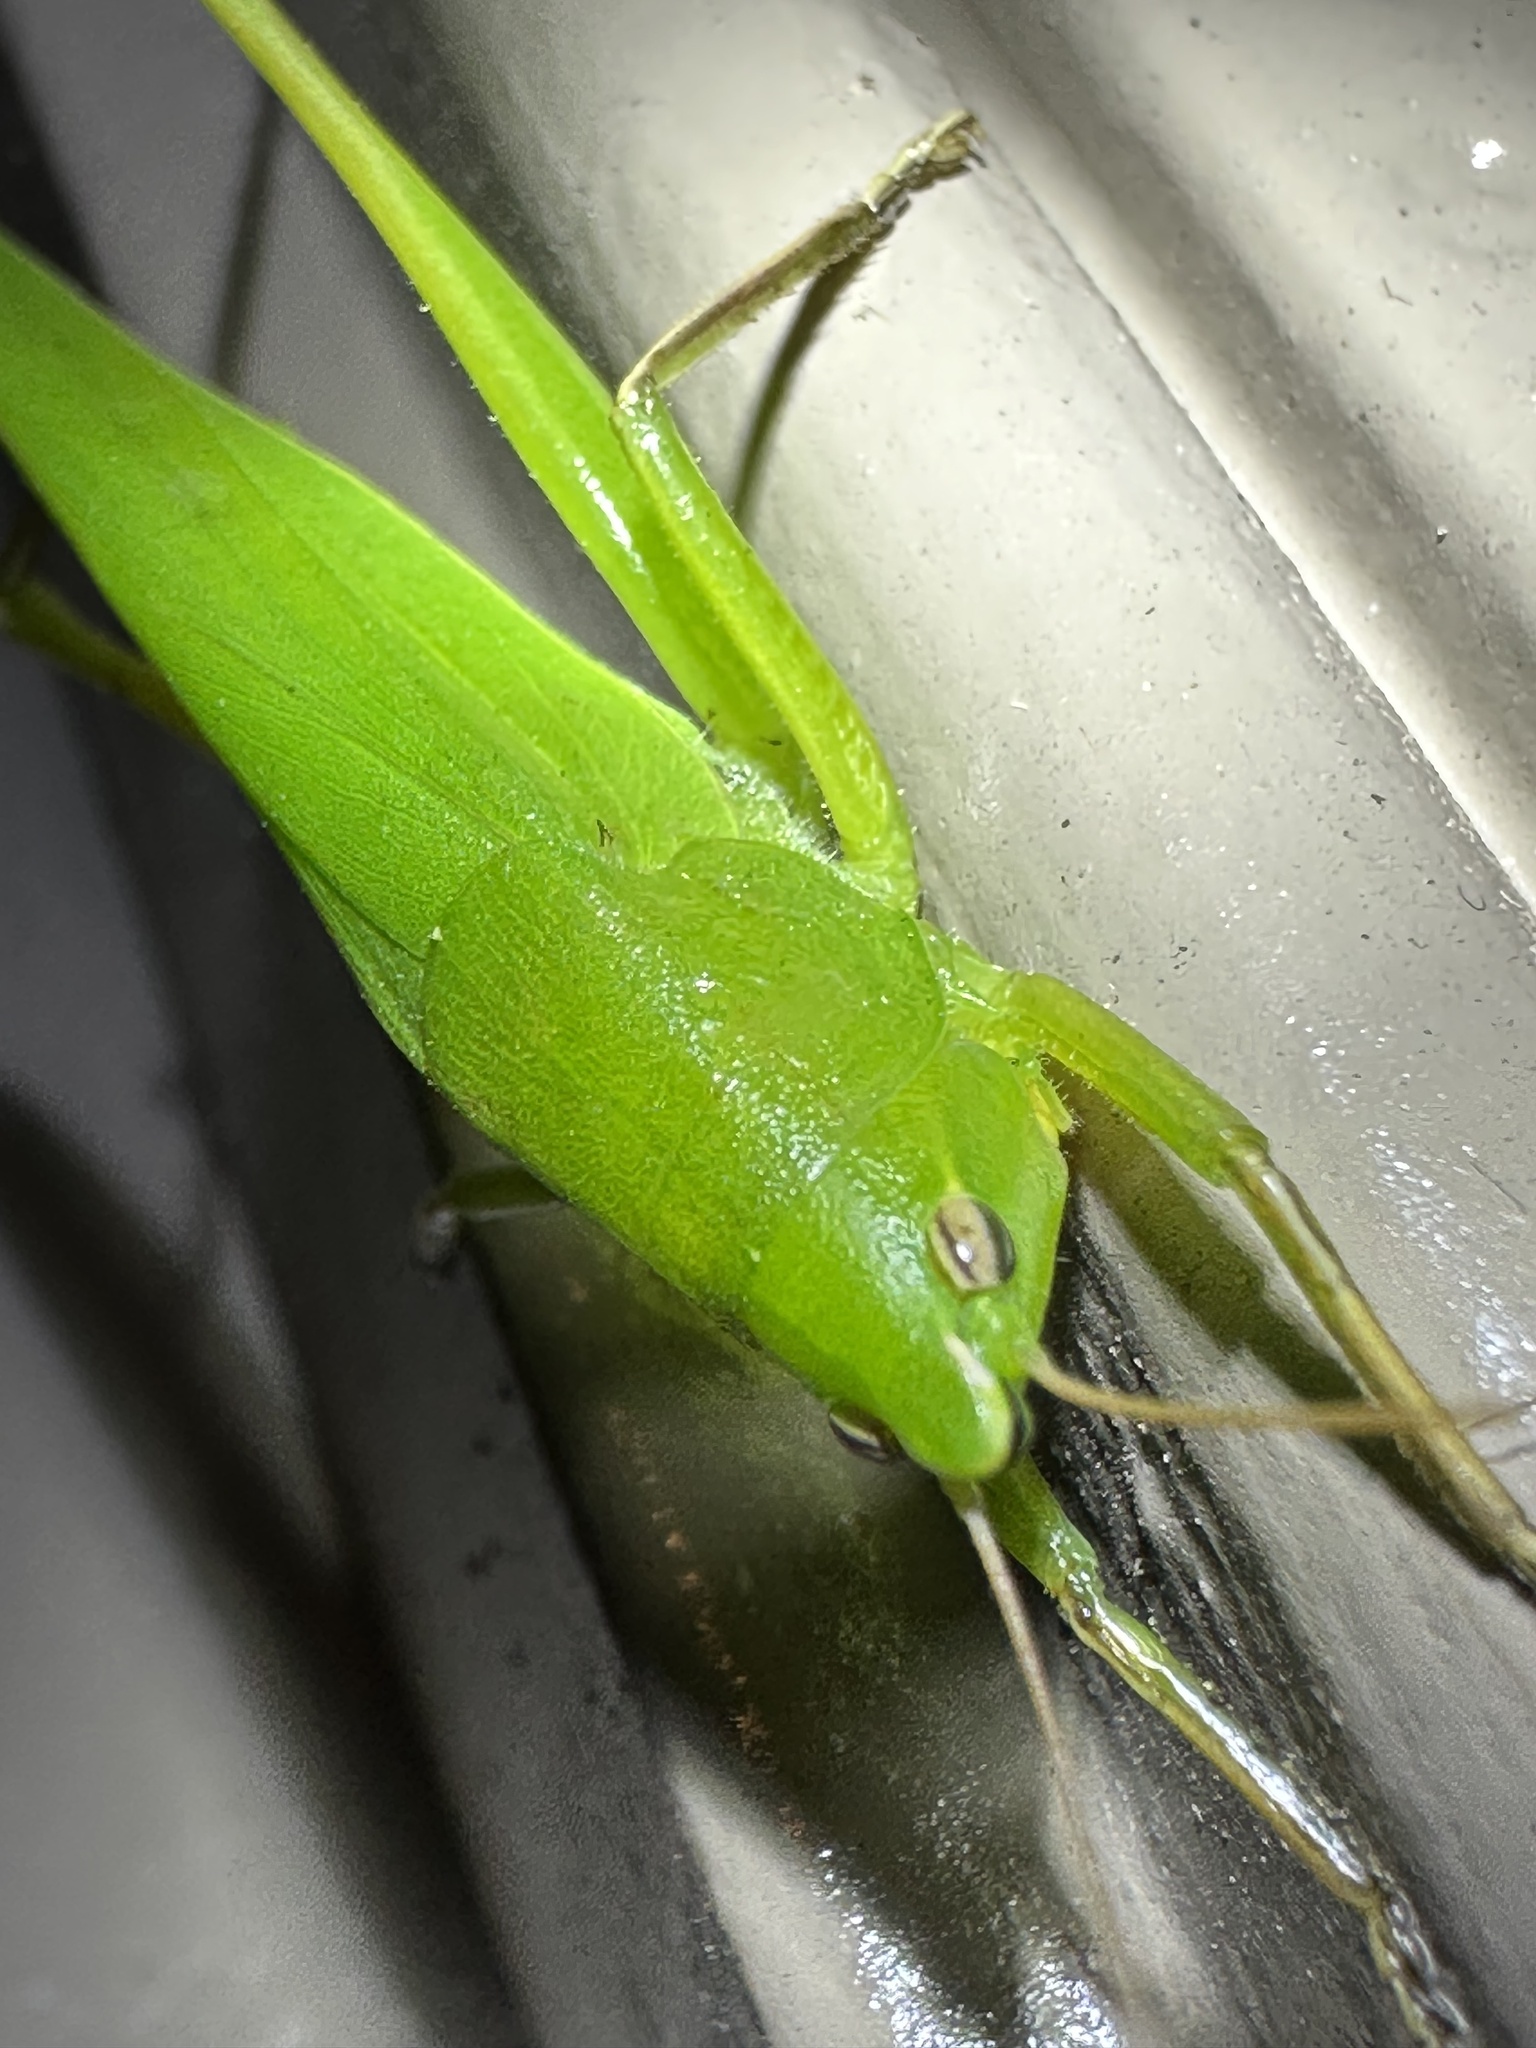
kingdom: Animalia
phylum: Arthropoda
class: Insecta
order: Orthoptera
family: Tettigoniidae
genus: Neoconocephalus
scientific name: Neoconocephalus triops
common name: Broad-tipped conehead
